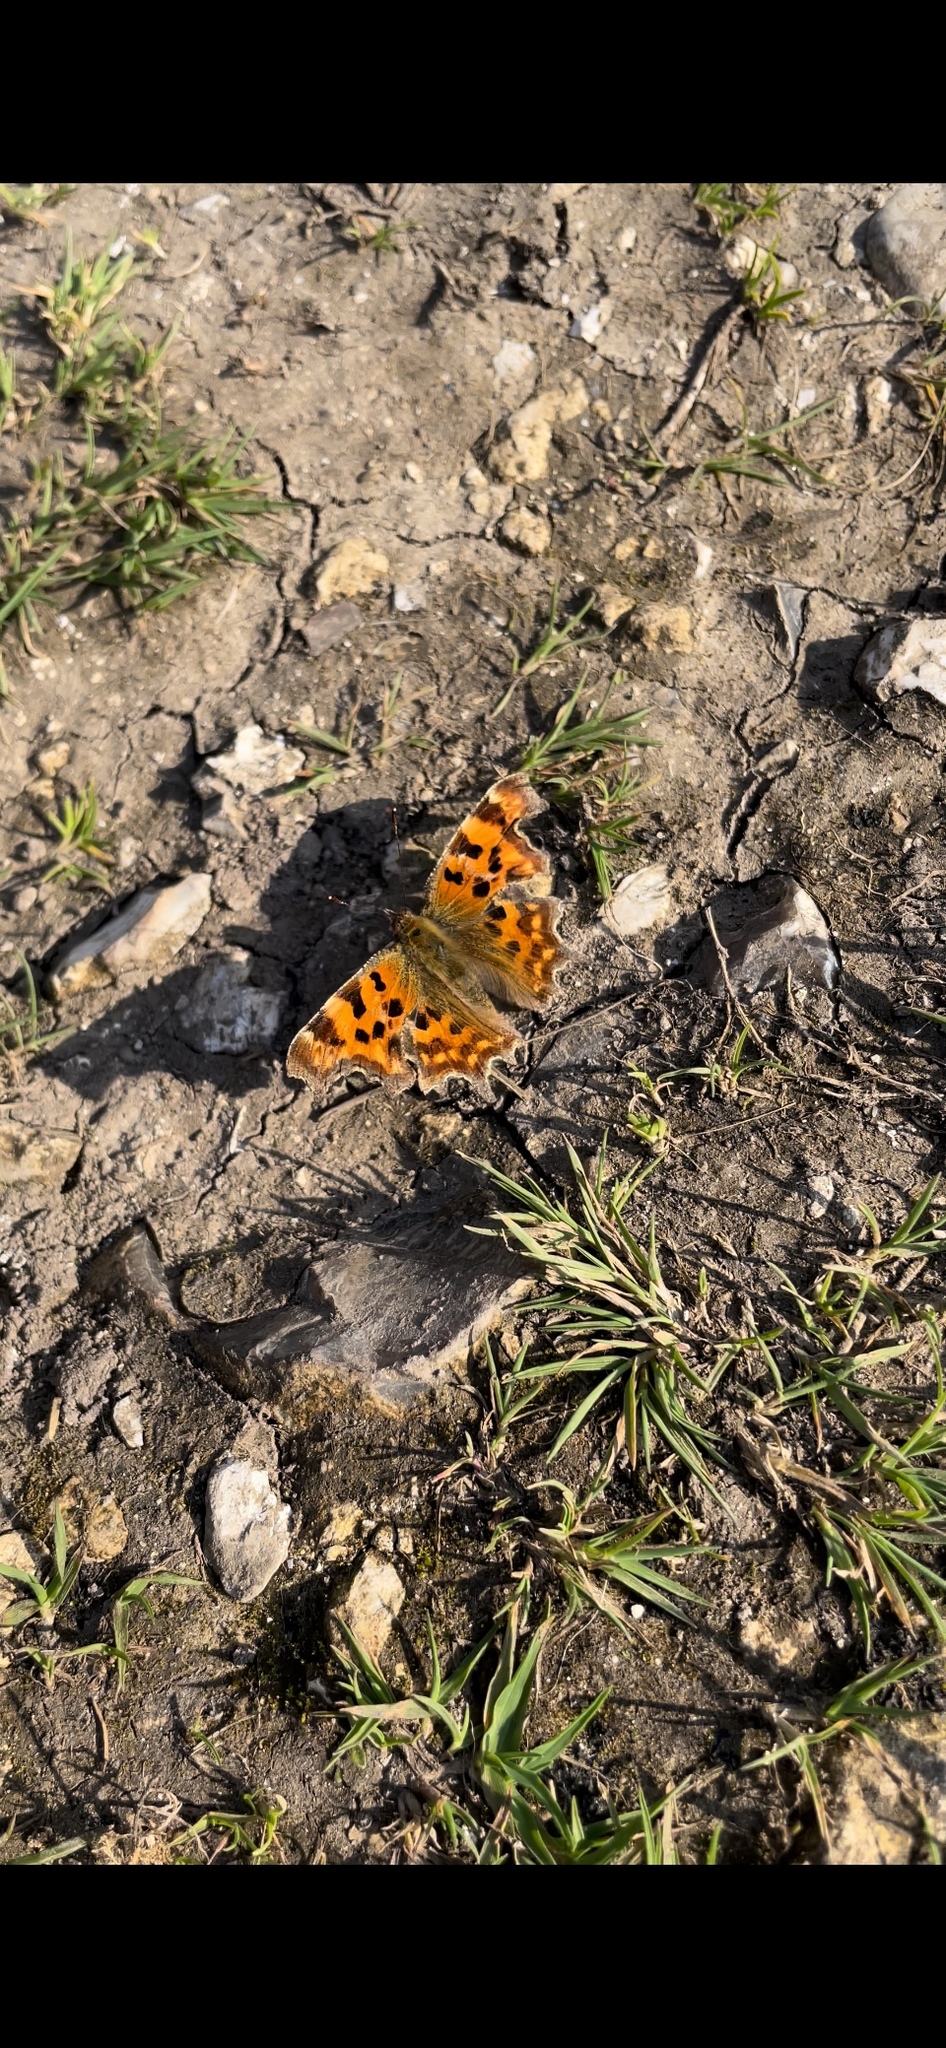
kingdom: Animalia
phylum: Arthropoda
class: Insecta
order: Lepidoptera
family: Nymphalidae
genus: Polygonia
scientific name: Polygonia c-album
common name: Comma
